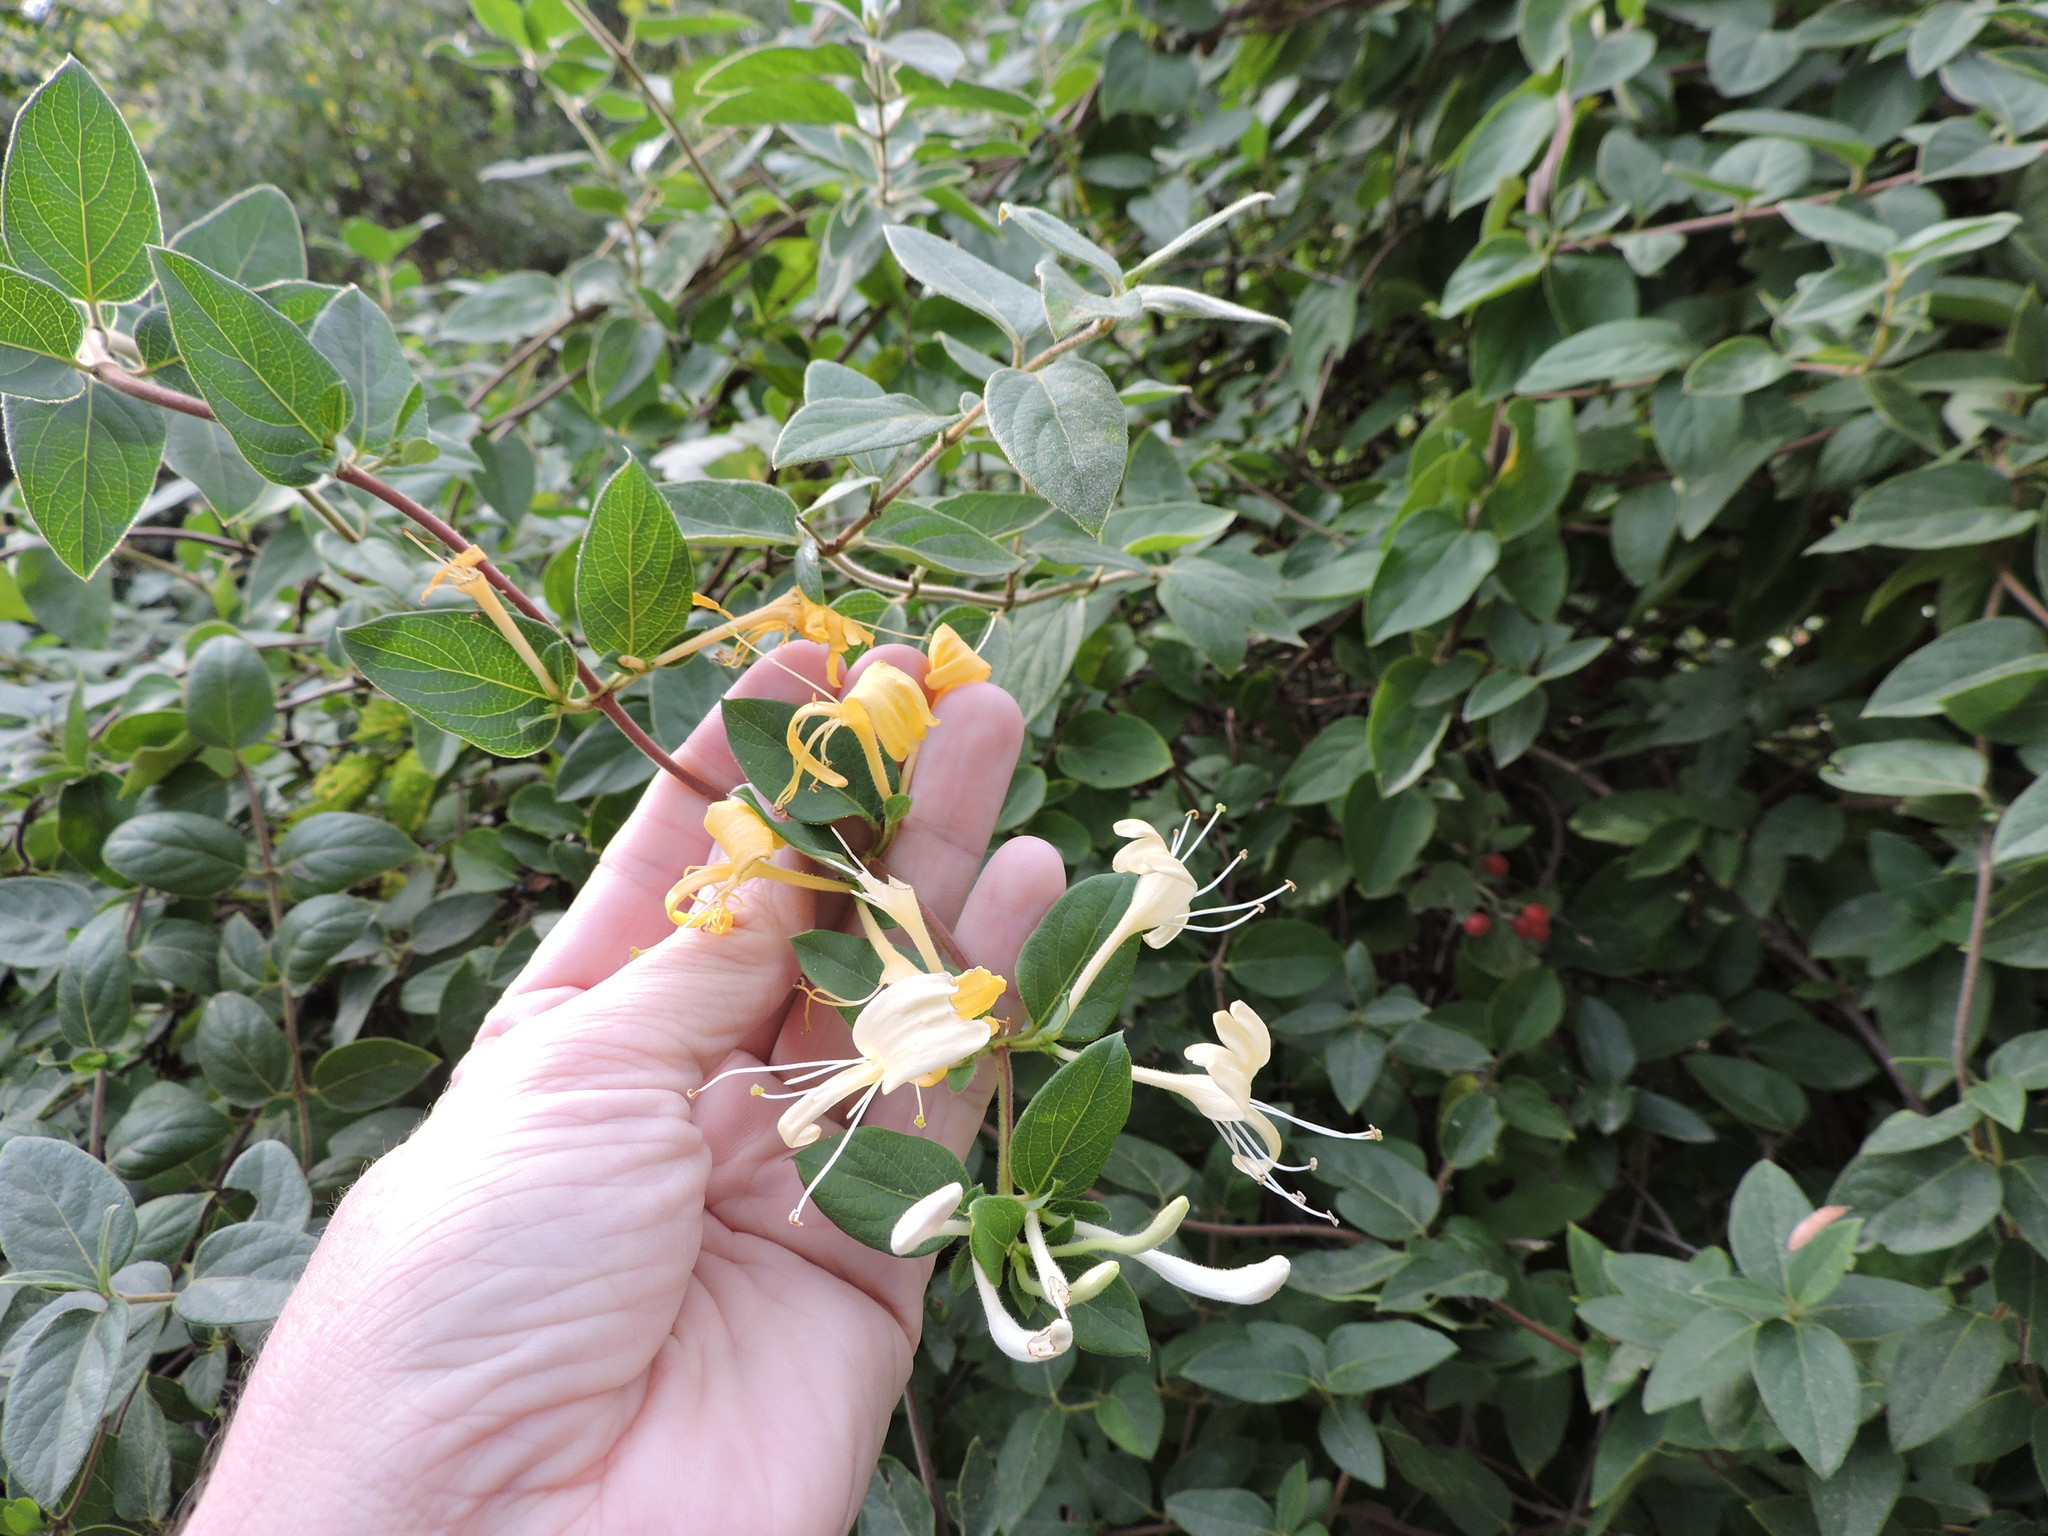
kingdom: Plantae
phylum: Tracheophyta
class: Magnoliopsida
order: Dipsacales
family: Caprifoliaceae
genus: Lonicera
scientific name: Lonicera japonica
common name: Japanese honeysuckle
